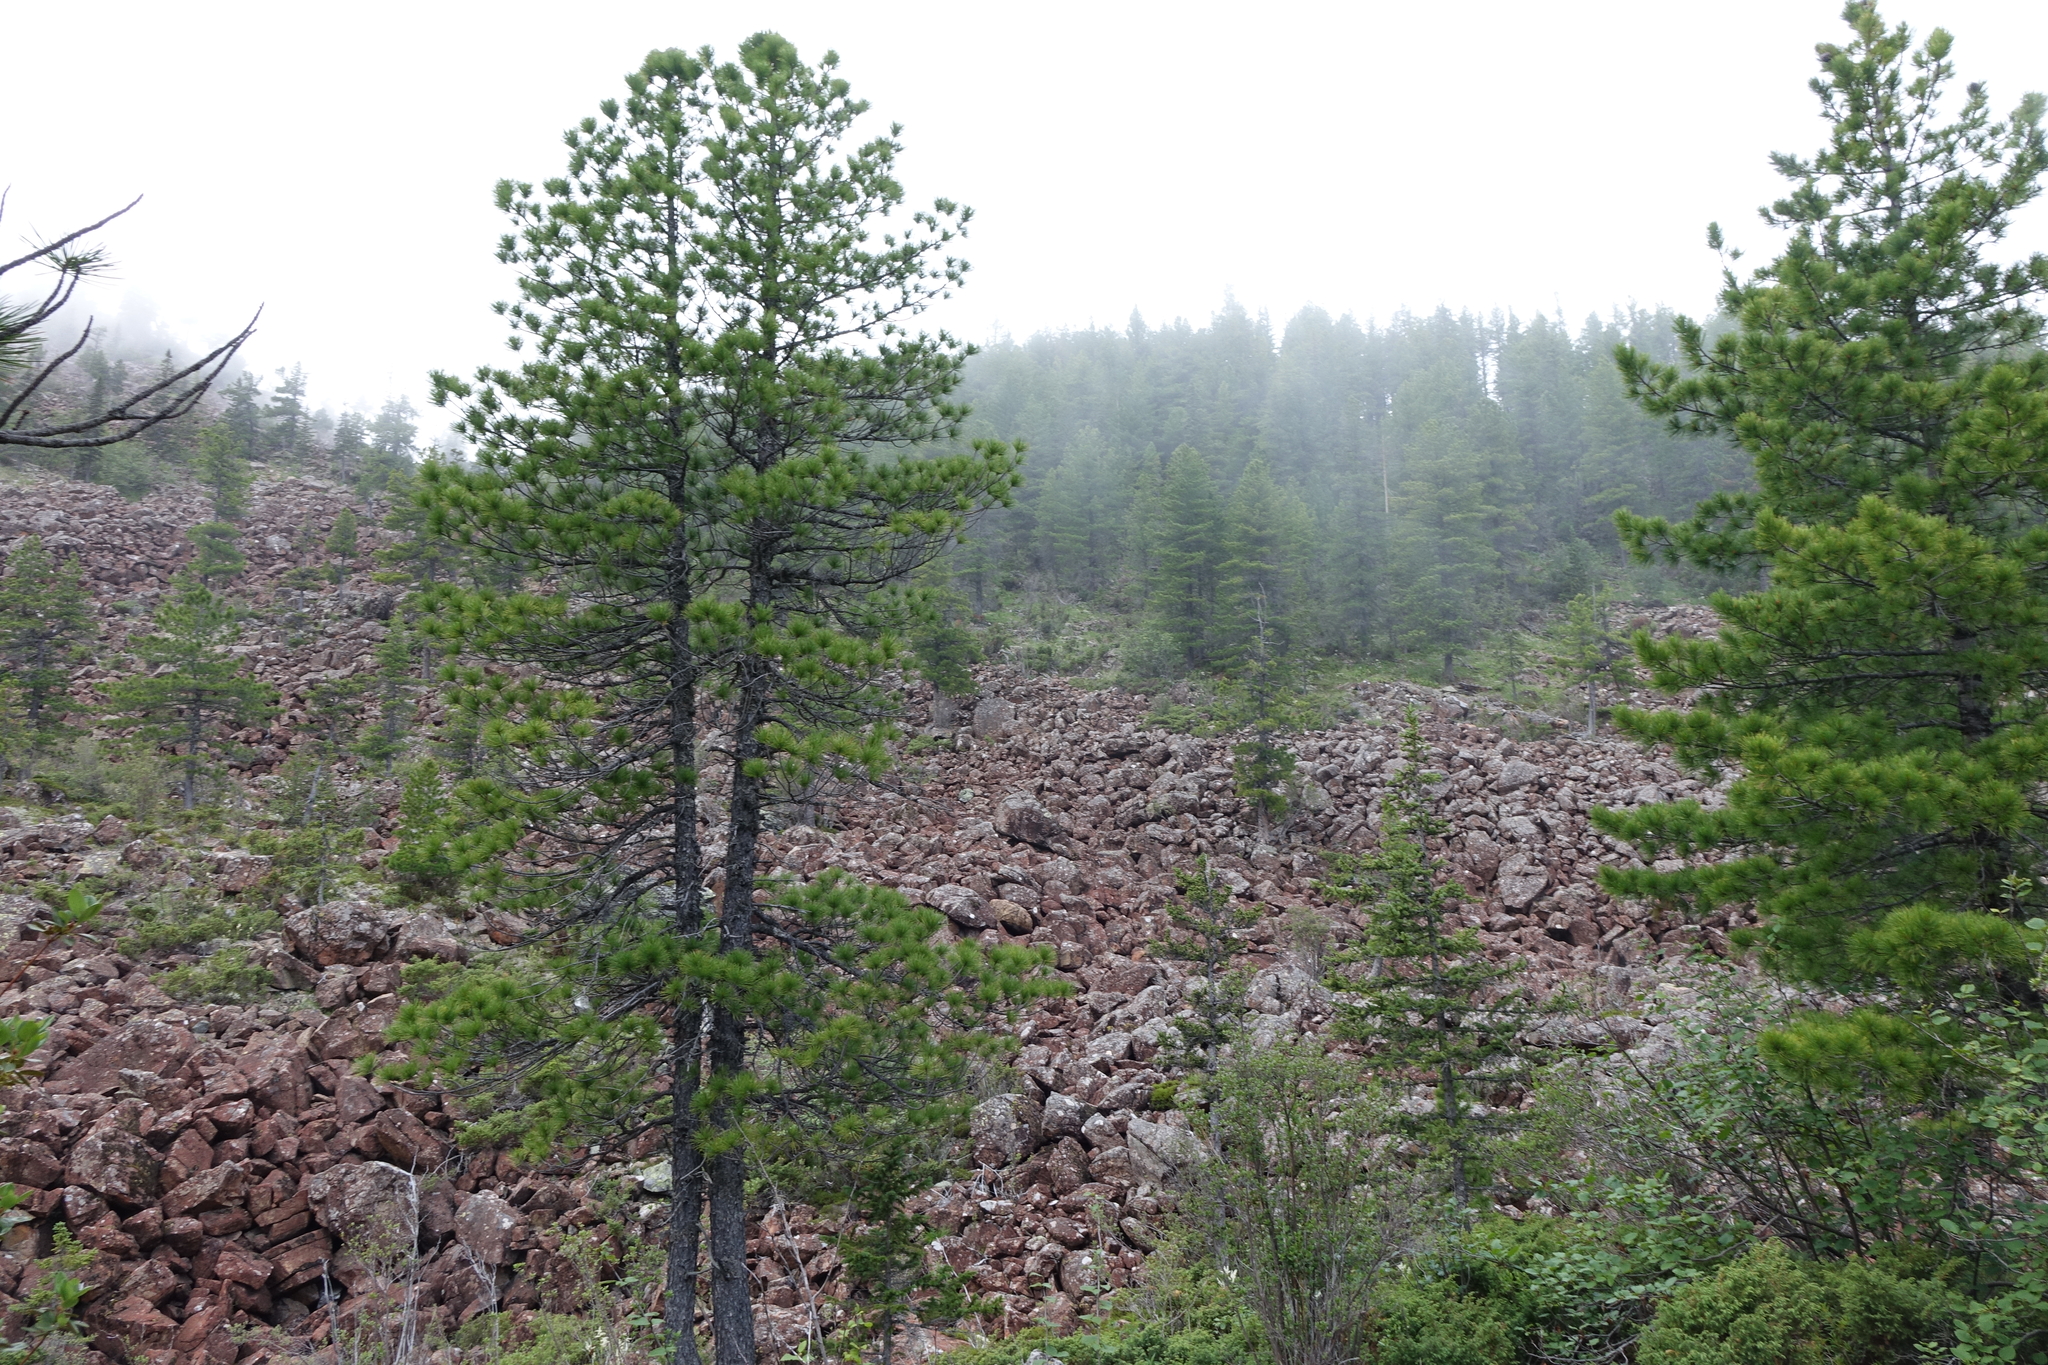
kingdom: Plantae
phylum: Tracheophyta
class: Pinopsida
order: Pinales
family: Pinaceae
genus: Pinus
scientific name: Pinus sibirica
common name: Siberian pine
